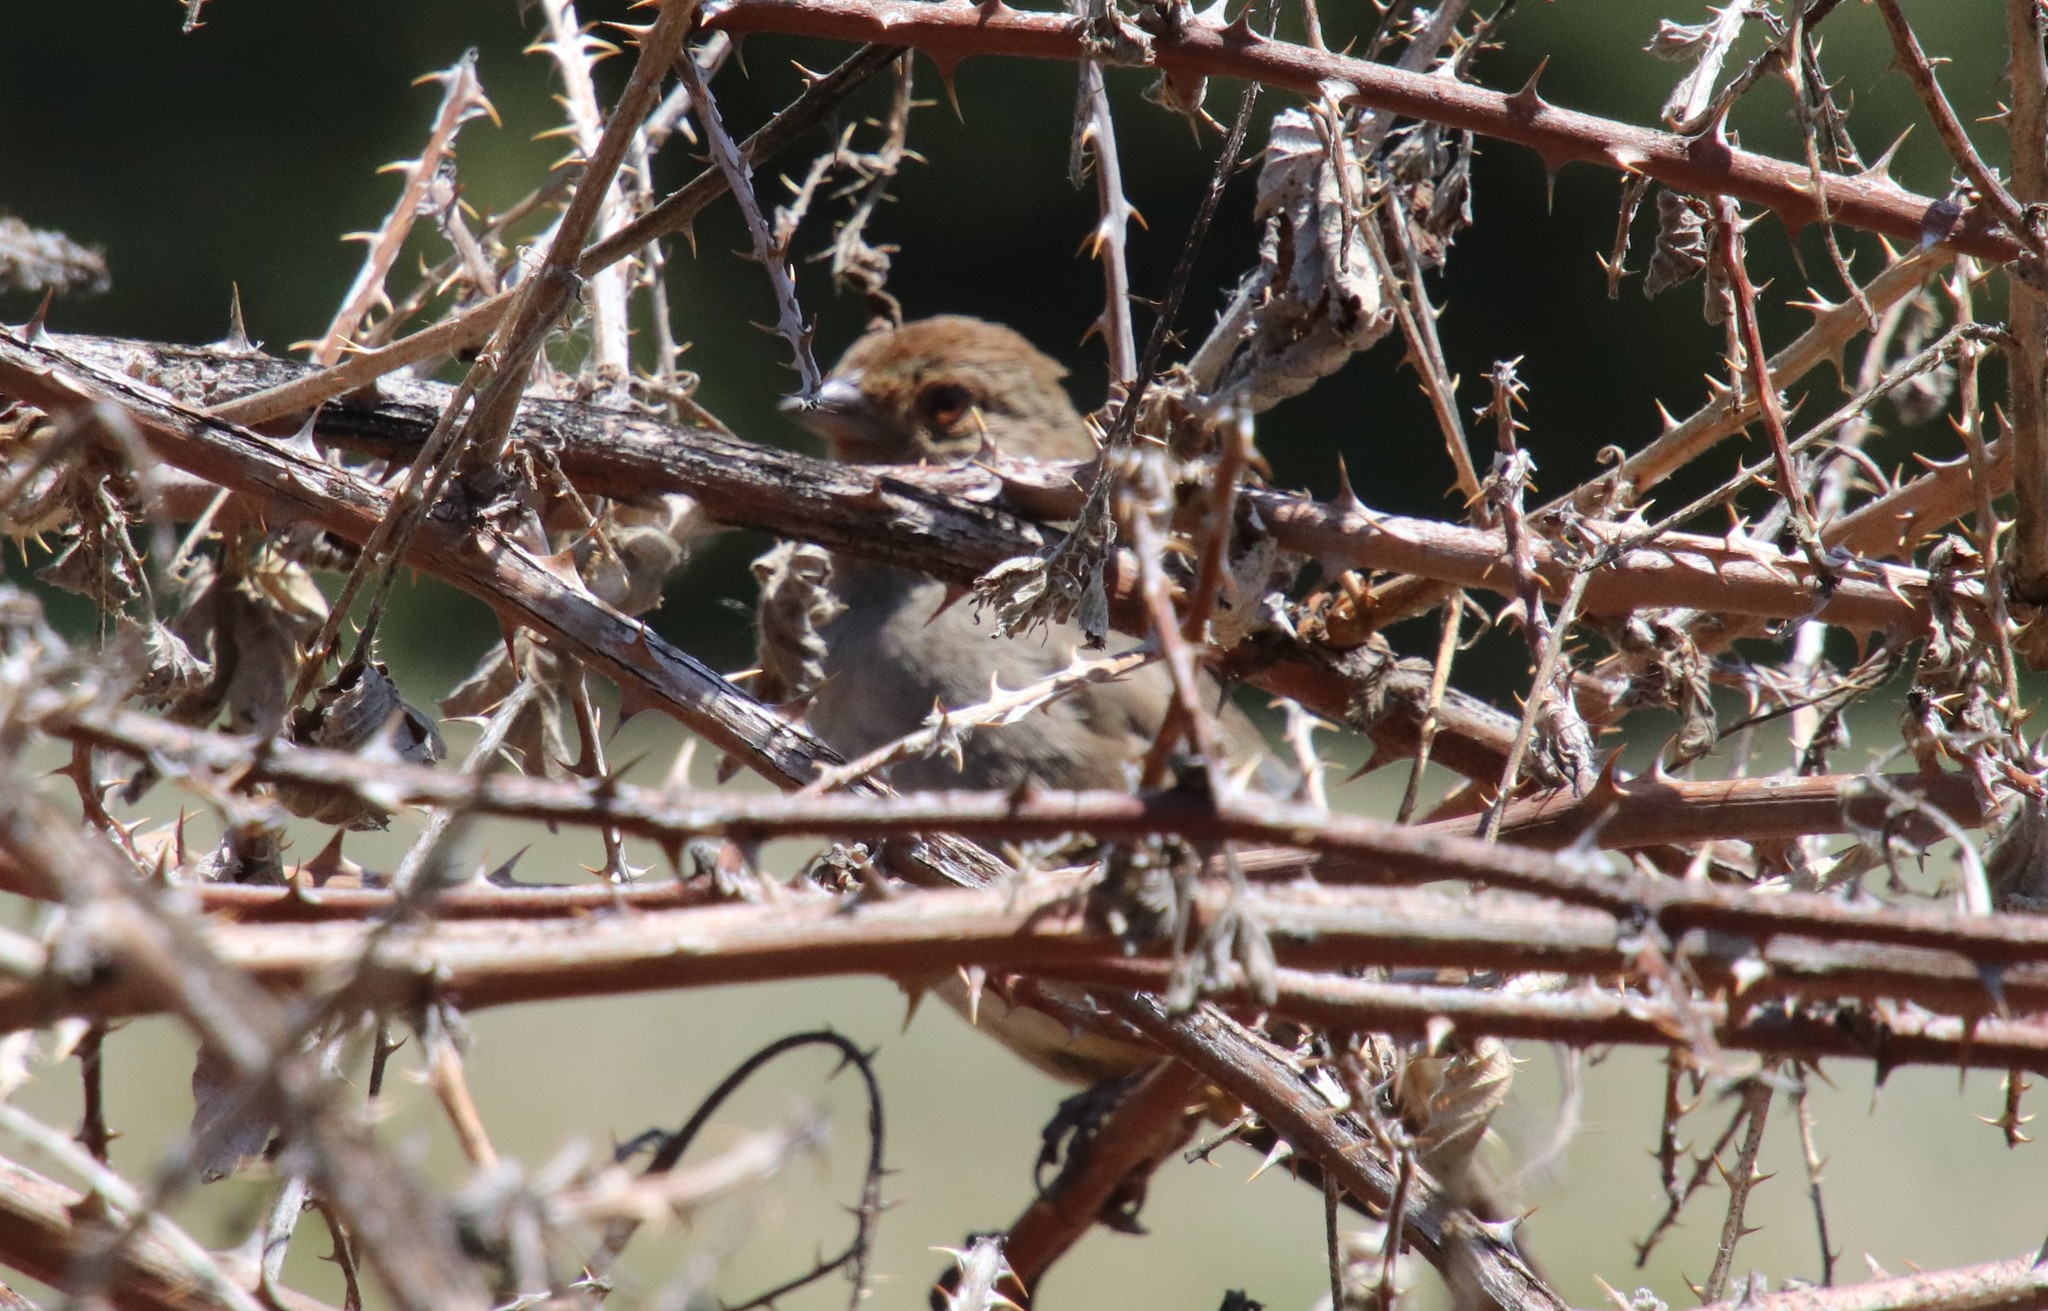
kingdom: Animalia
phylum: Chordata
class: Aves
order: Passeriformes
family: Passerellidae
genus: Melozone
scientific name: Melozone crissalis
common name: California towhee
